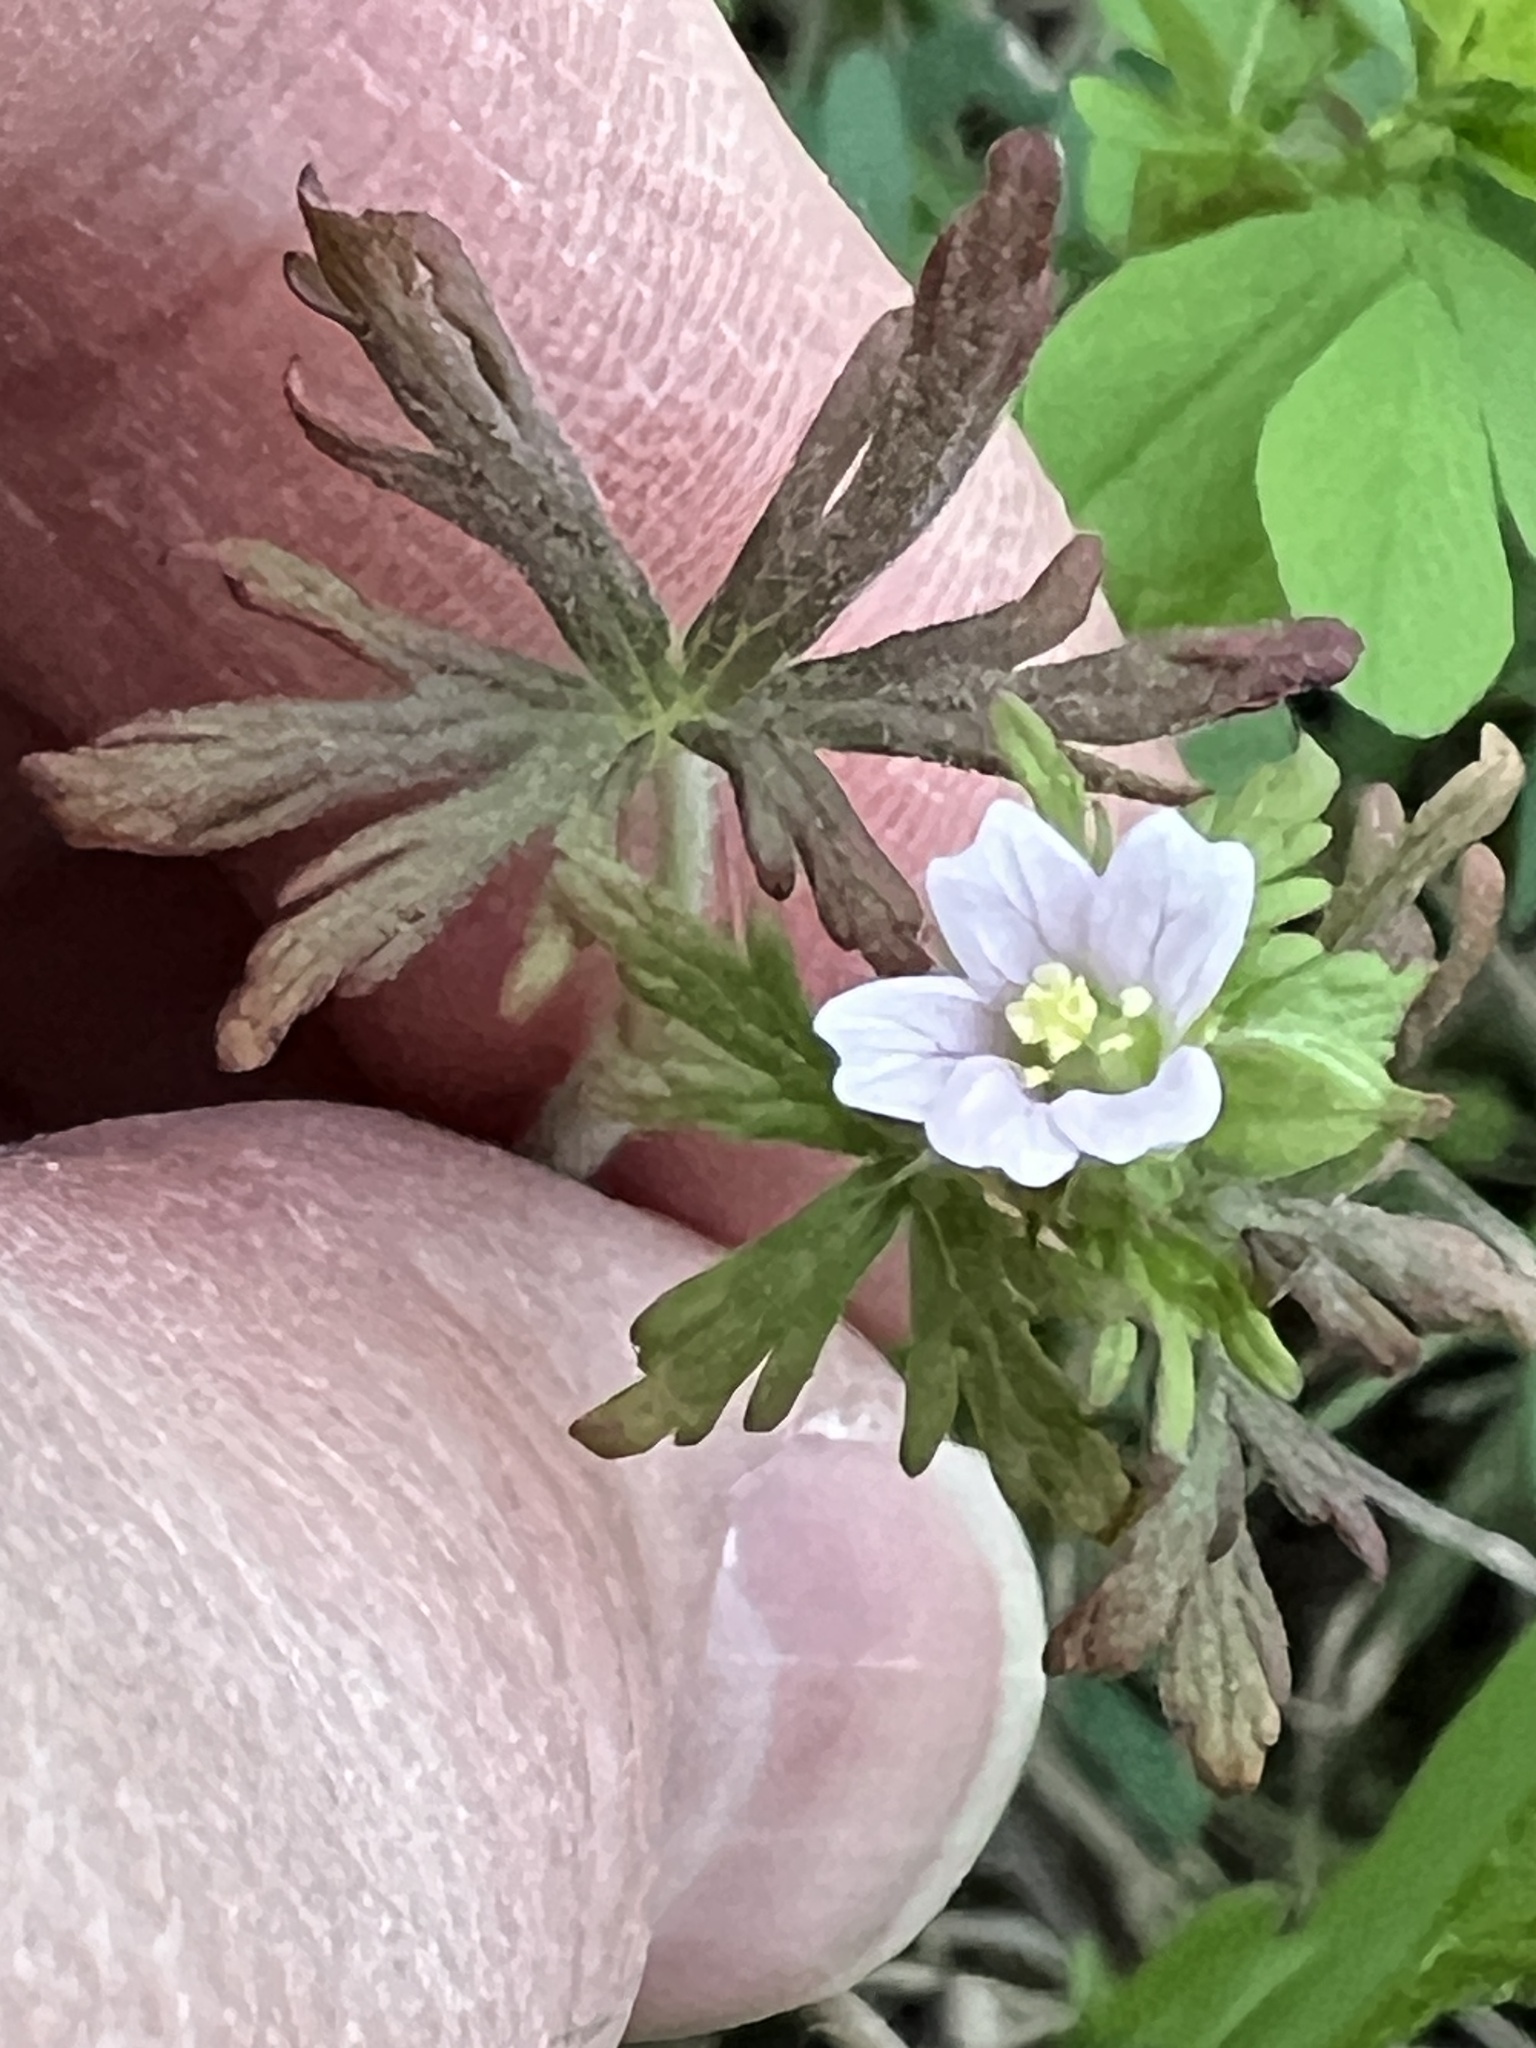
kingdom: Plantae
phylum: Tracheophyta
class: Magnoliopsida
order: Geraniales
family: Geraniaceae
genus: Geranium
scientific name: Geranium carolinianum
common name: Carolina crane's-bill
